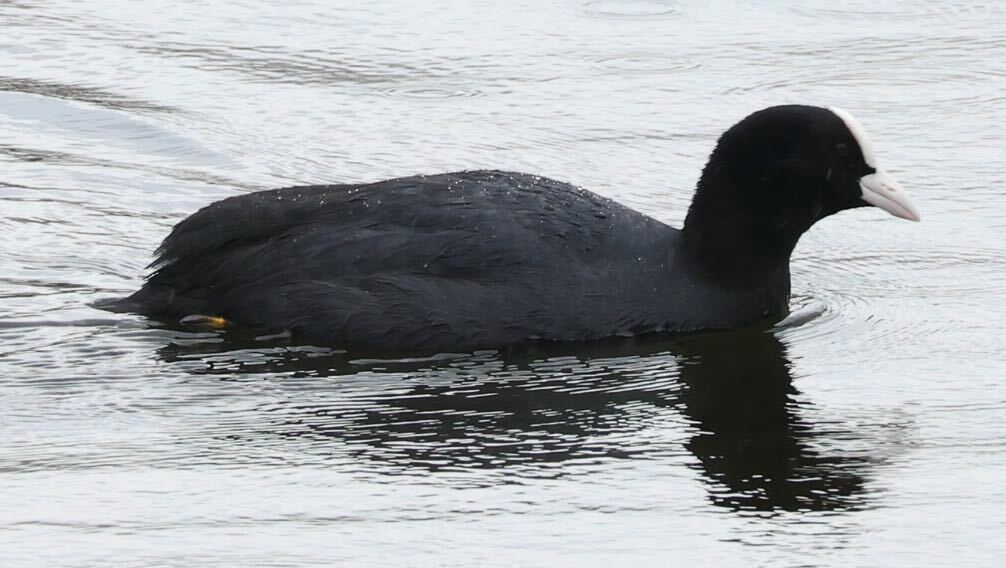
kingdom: Animalia
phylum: Chordata
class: Aves
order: Gruiformes
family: Rallidae
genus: Fulica
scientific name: Fulica atra
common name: Eurasian coot
